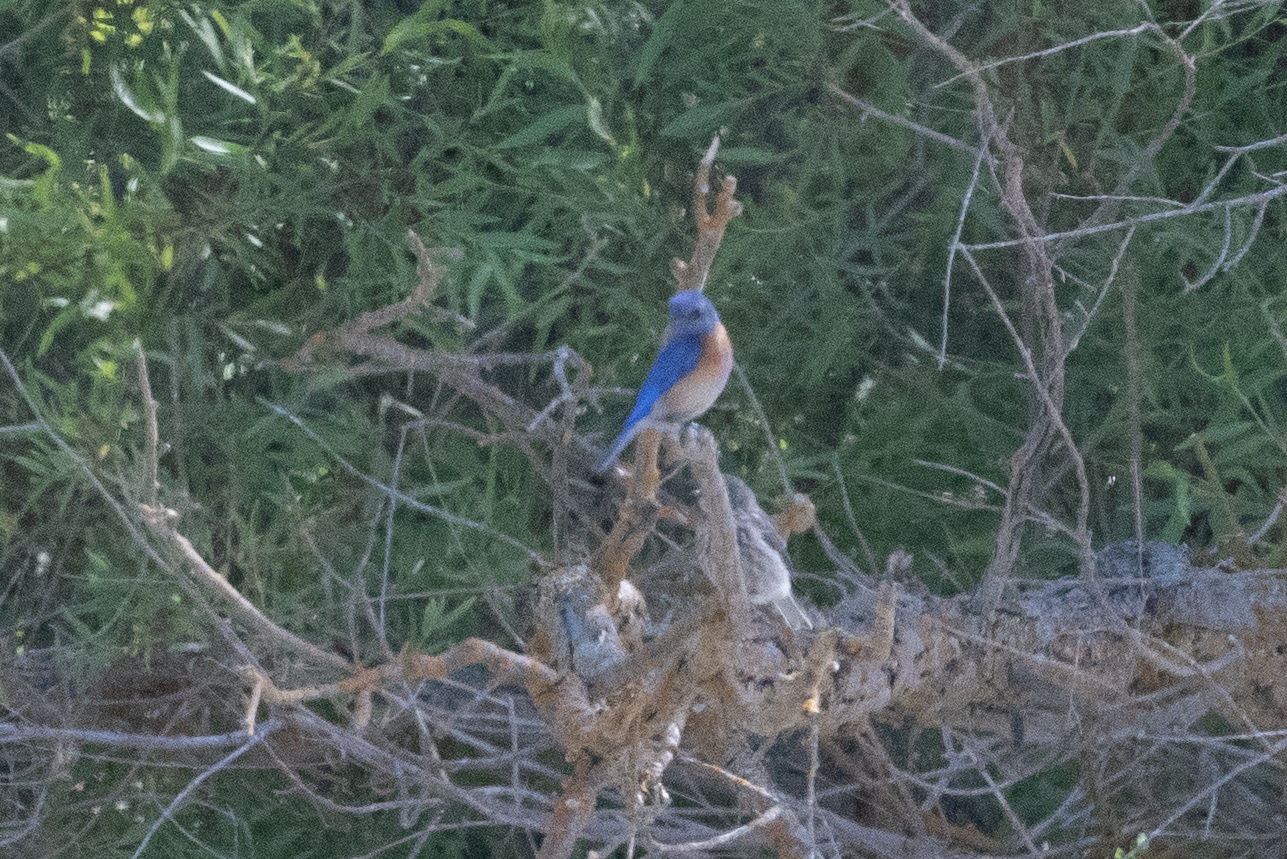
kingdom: Animalia
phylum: Chordata
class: Aves
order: Passeriformes
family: Turdidae
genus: Sialia
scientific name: Sialia mexicana
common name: Western bluebird
